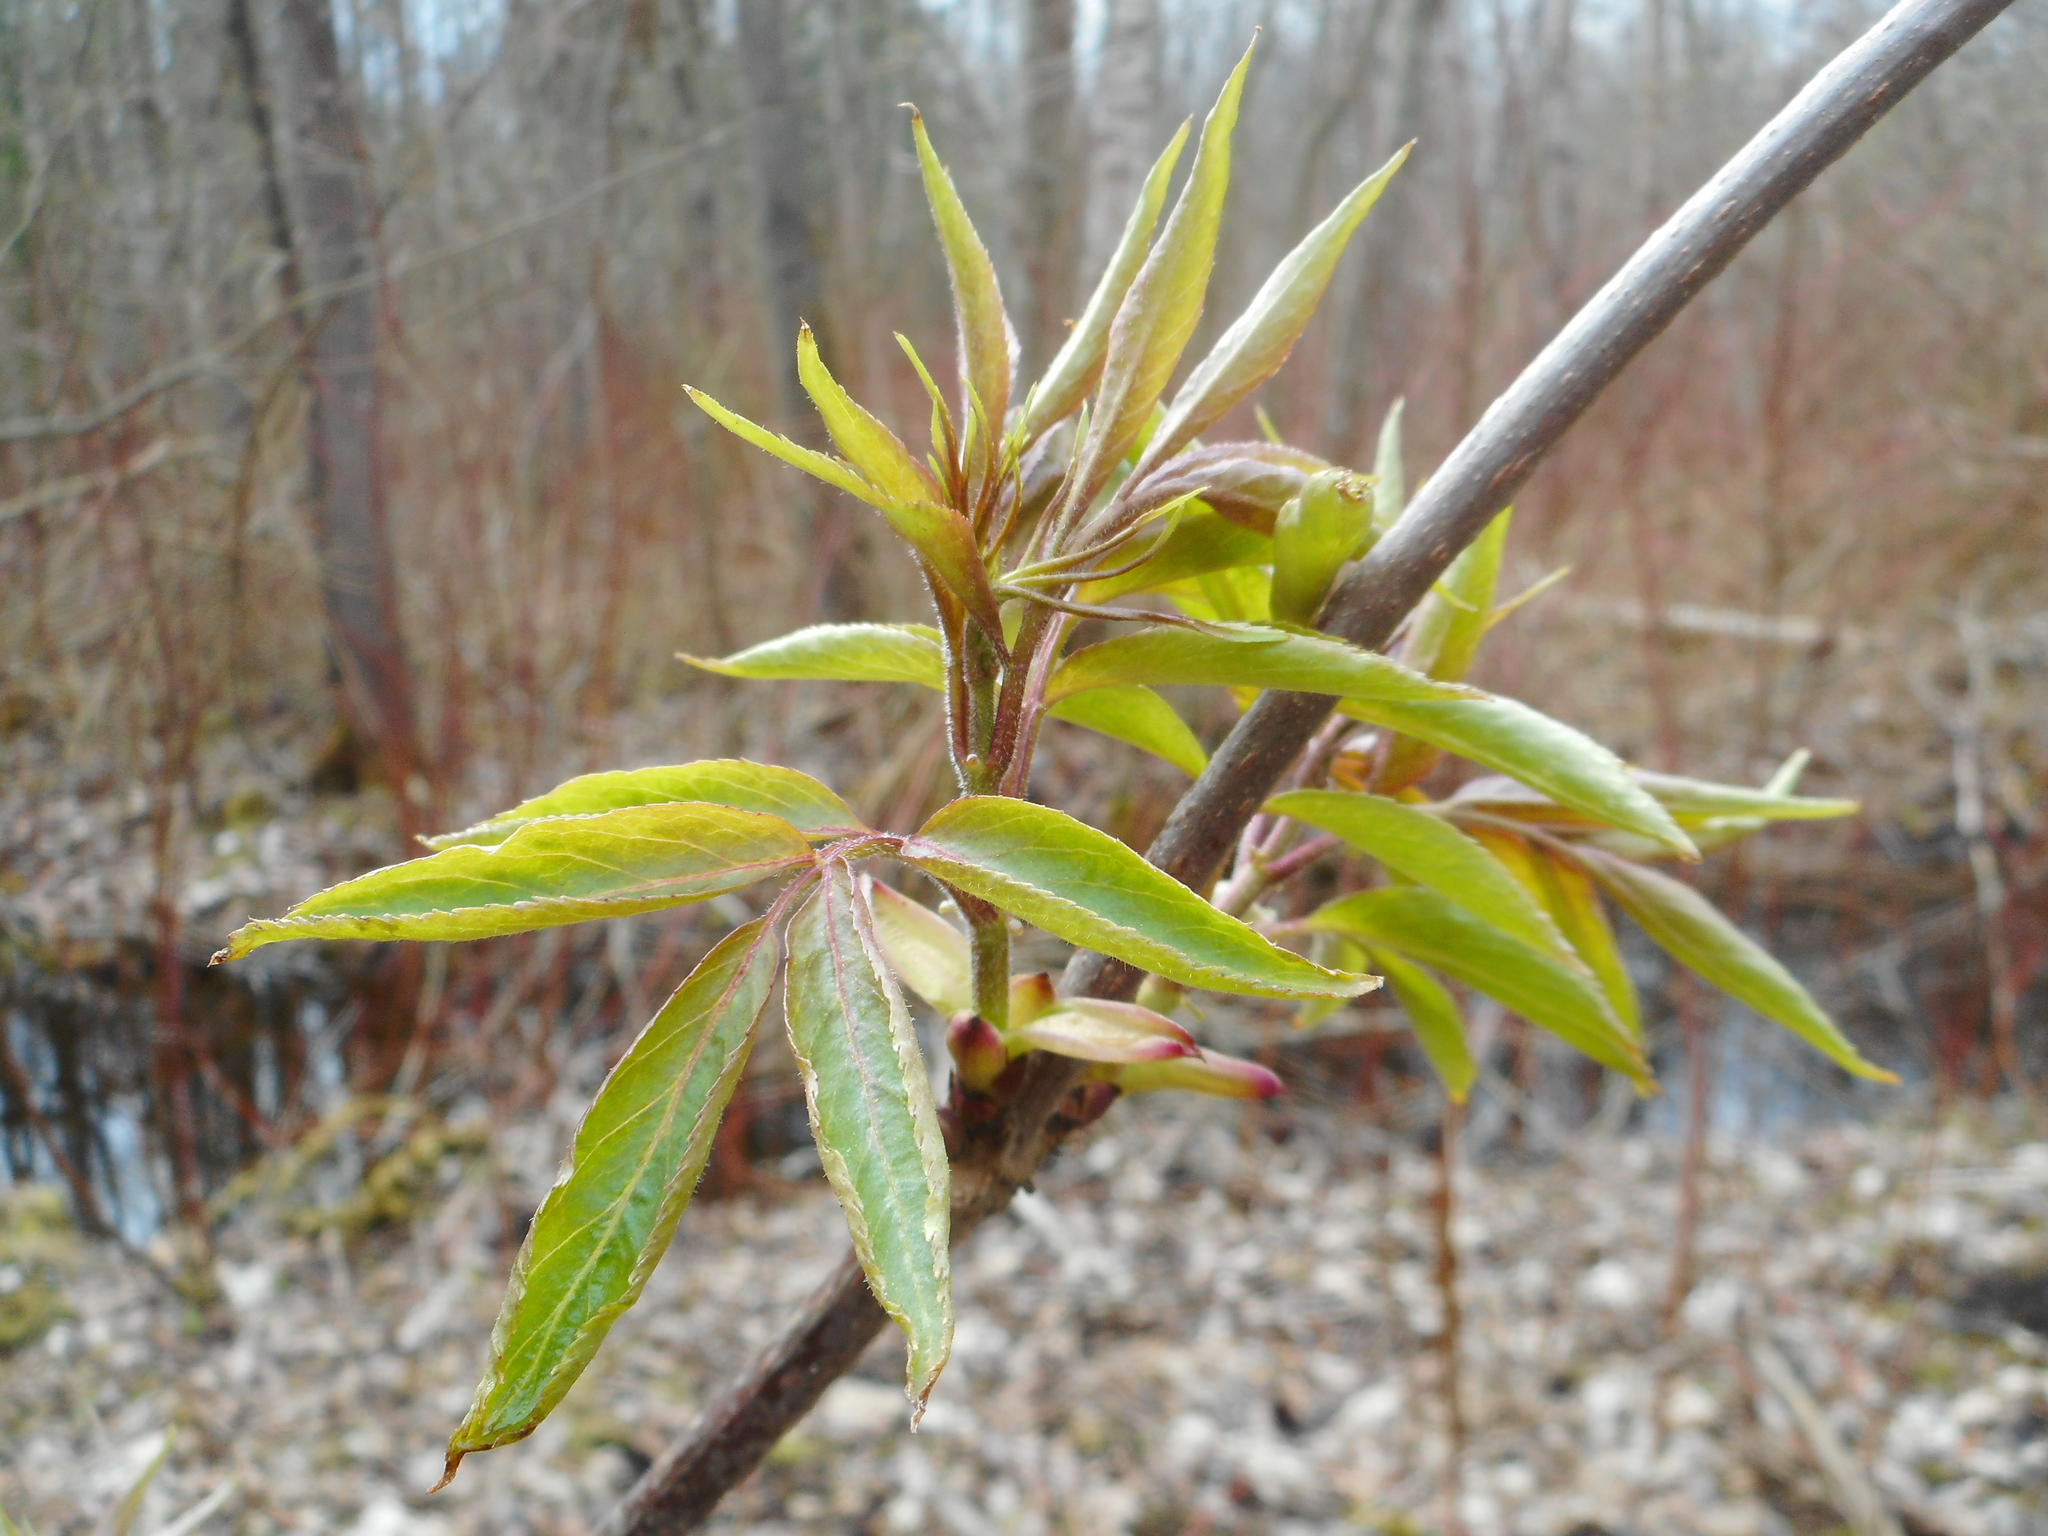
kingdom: Plantae
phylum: Tracheophyta
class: Magnoliopsida
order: Dipsacales
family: Viburnaceae
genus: Sambucus
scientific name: Sambucus racemosa
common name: Red-berried elder
